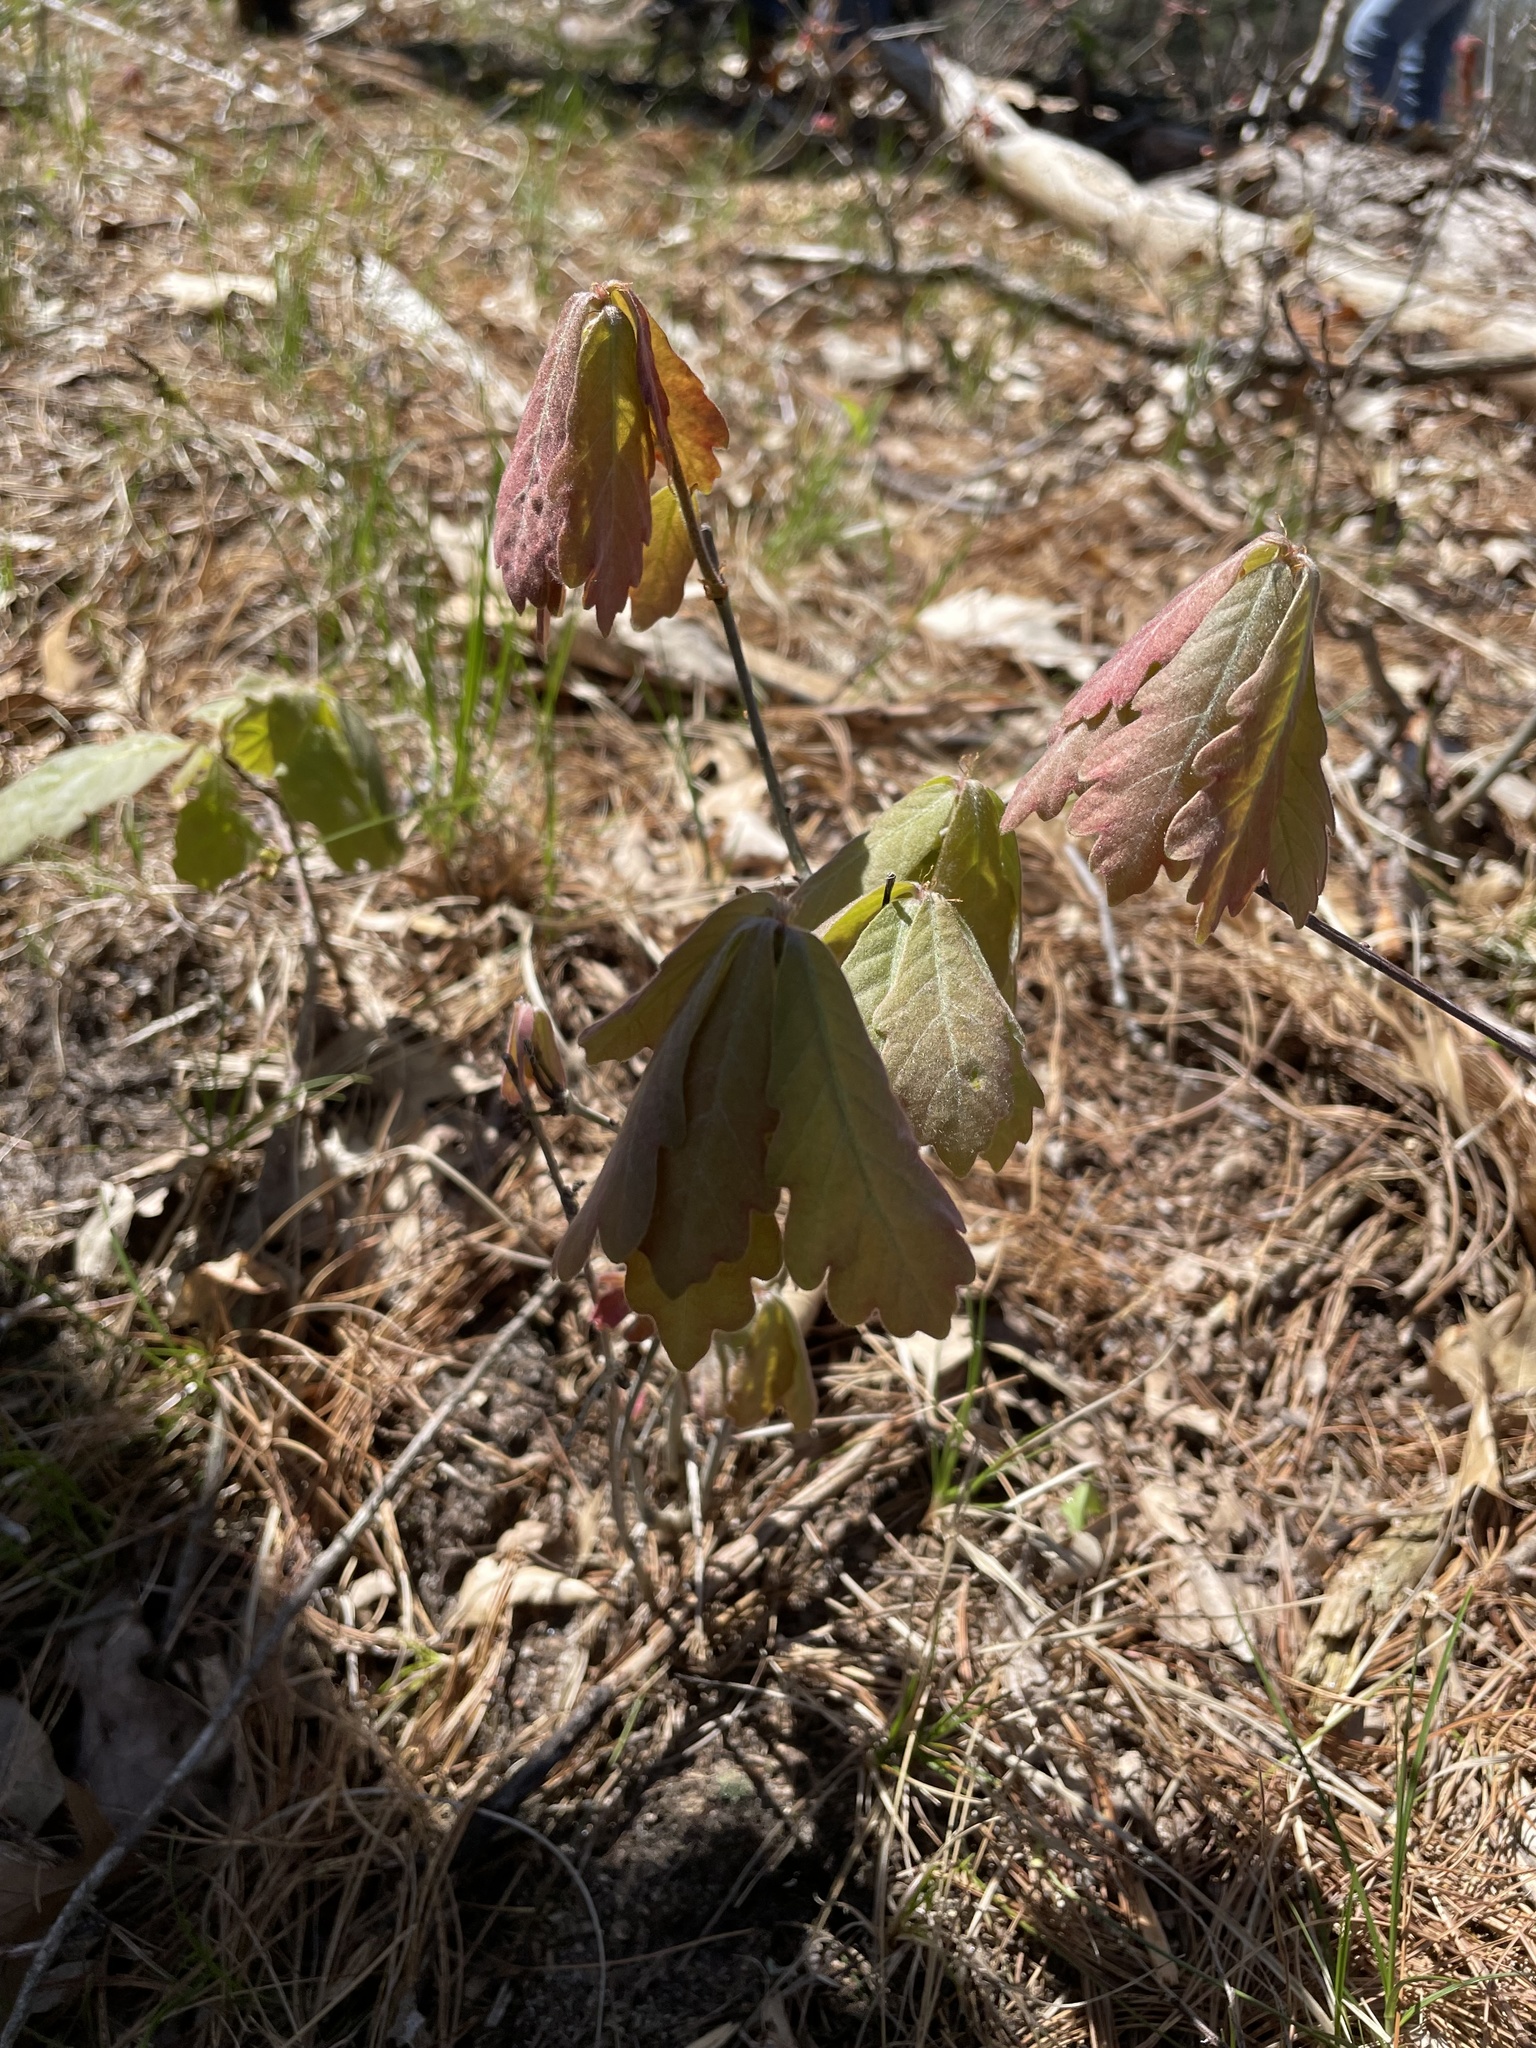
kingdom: Plantae
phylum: Tracheophyta
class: Magnoliopsida
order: Fagales
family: Fagaceae
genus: Quercus
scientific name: Quercus alba
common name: White oak
